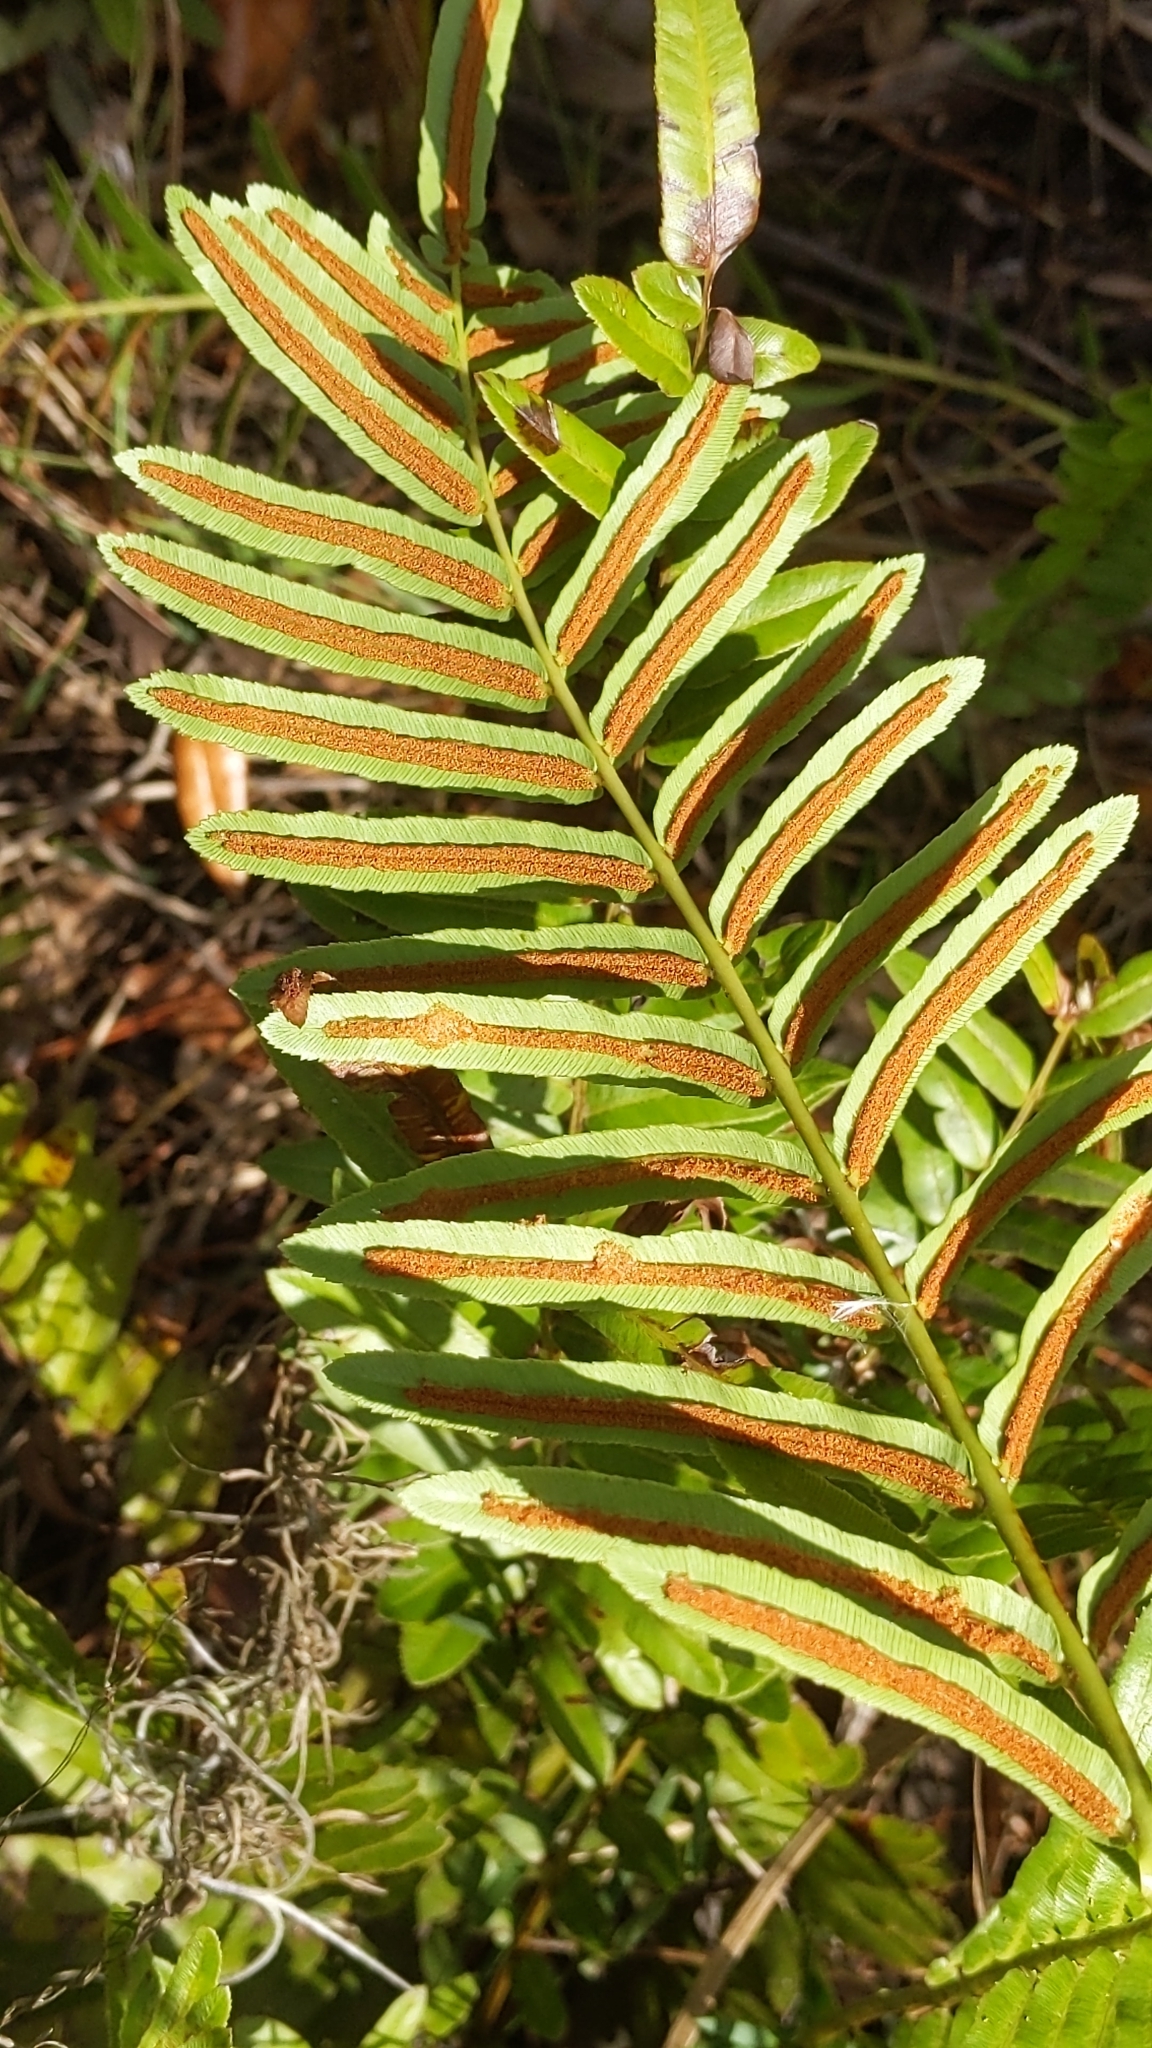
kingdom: Plantae
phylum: Tracheophyta
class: Polypodiopsida
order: Polypodiales
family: Blechnaceae
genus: Telmatoblechnum
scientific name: Telmatoblechnum serrulatum
